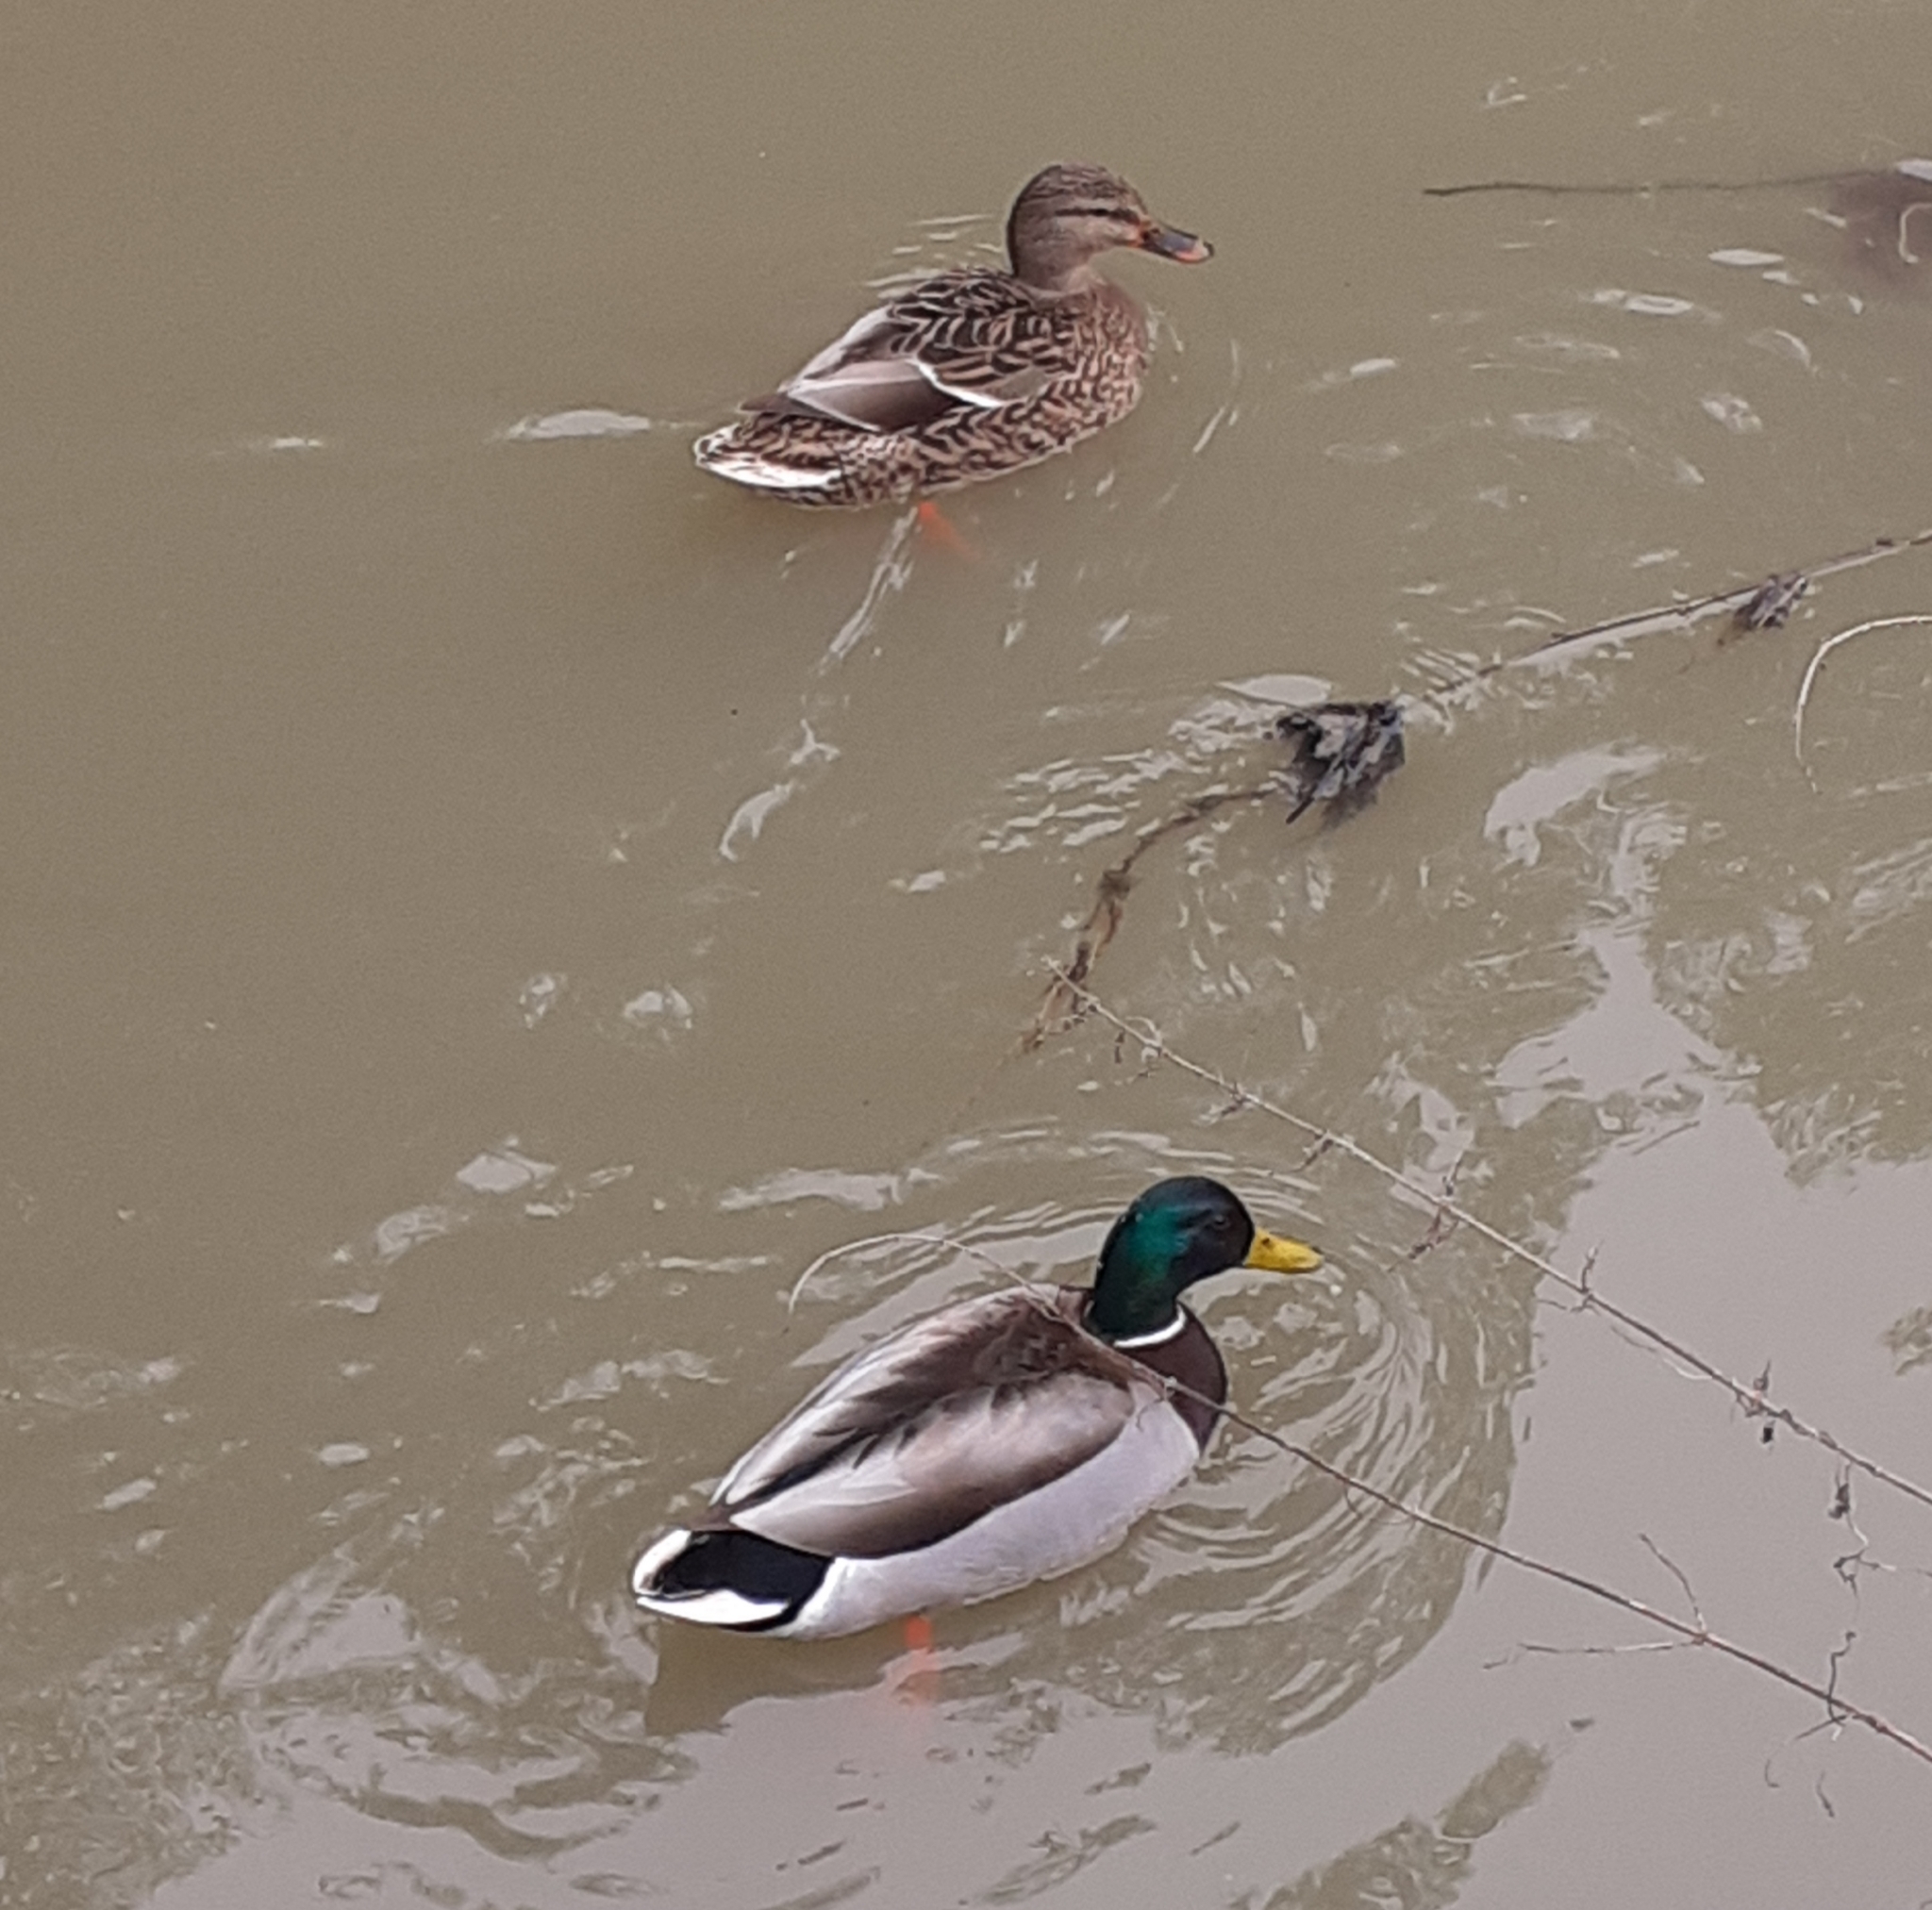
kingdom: Animalia
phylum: Chordata
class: Aves
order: Anseriformes
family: Anatidae
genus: Anas
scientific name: Anas platyrhynchos
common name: Mallard
